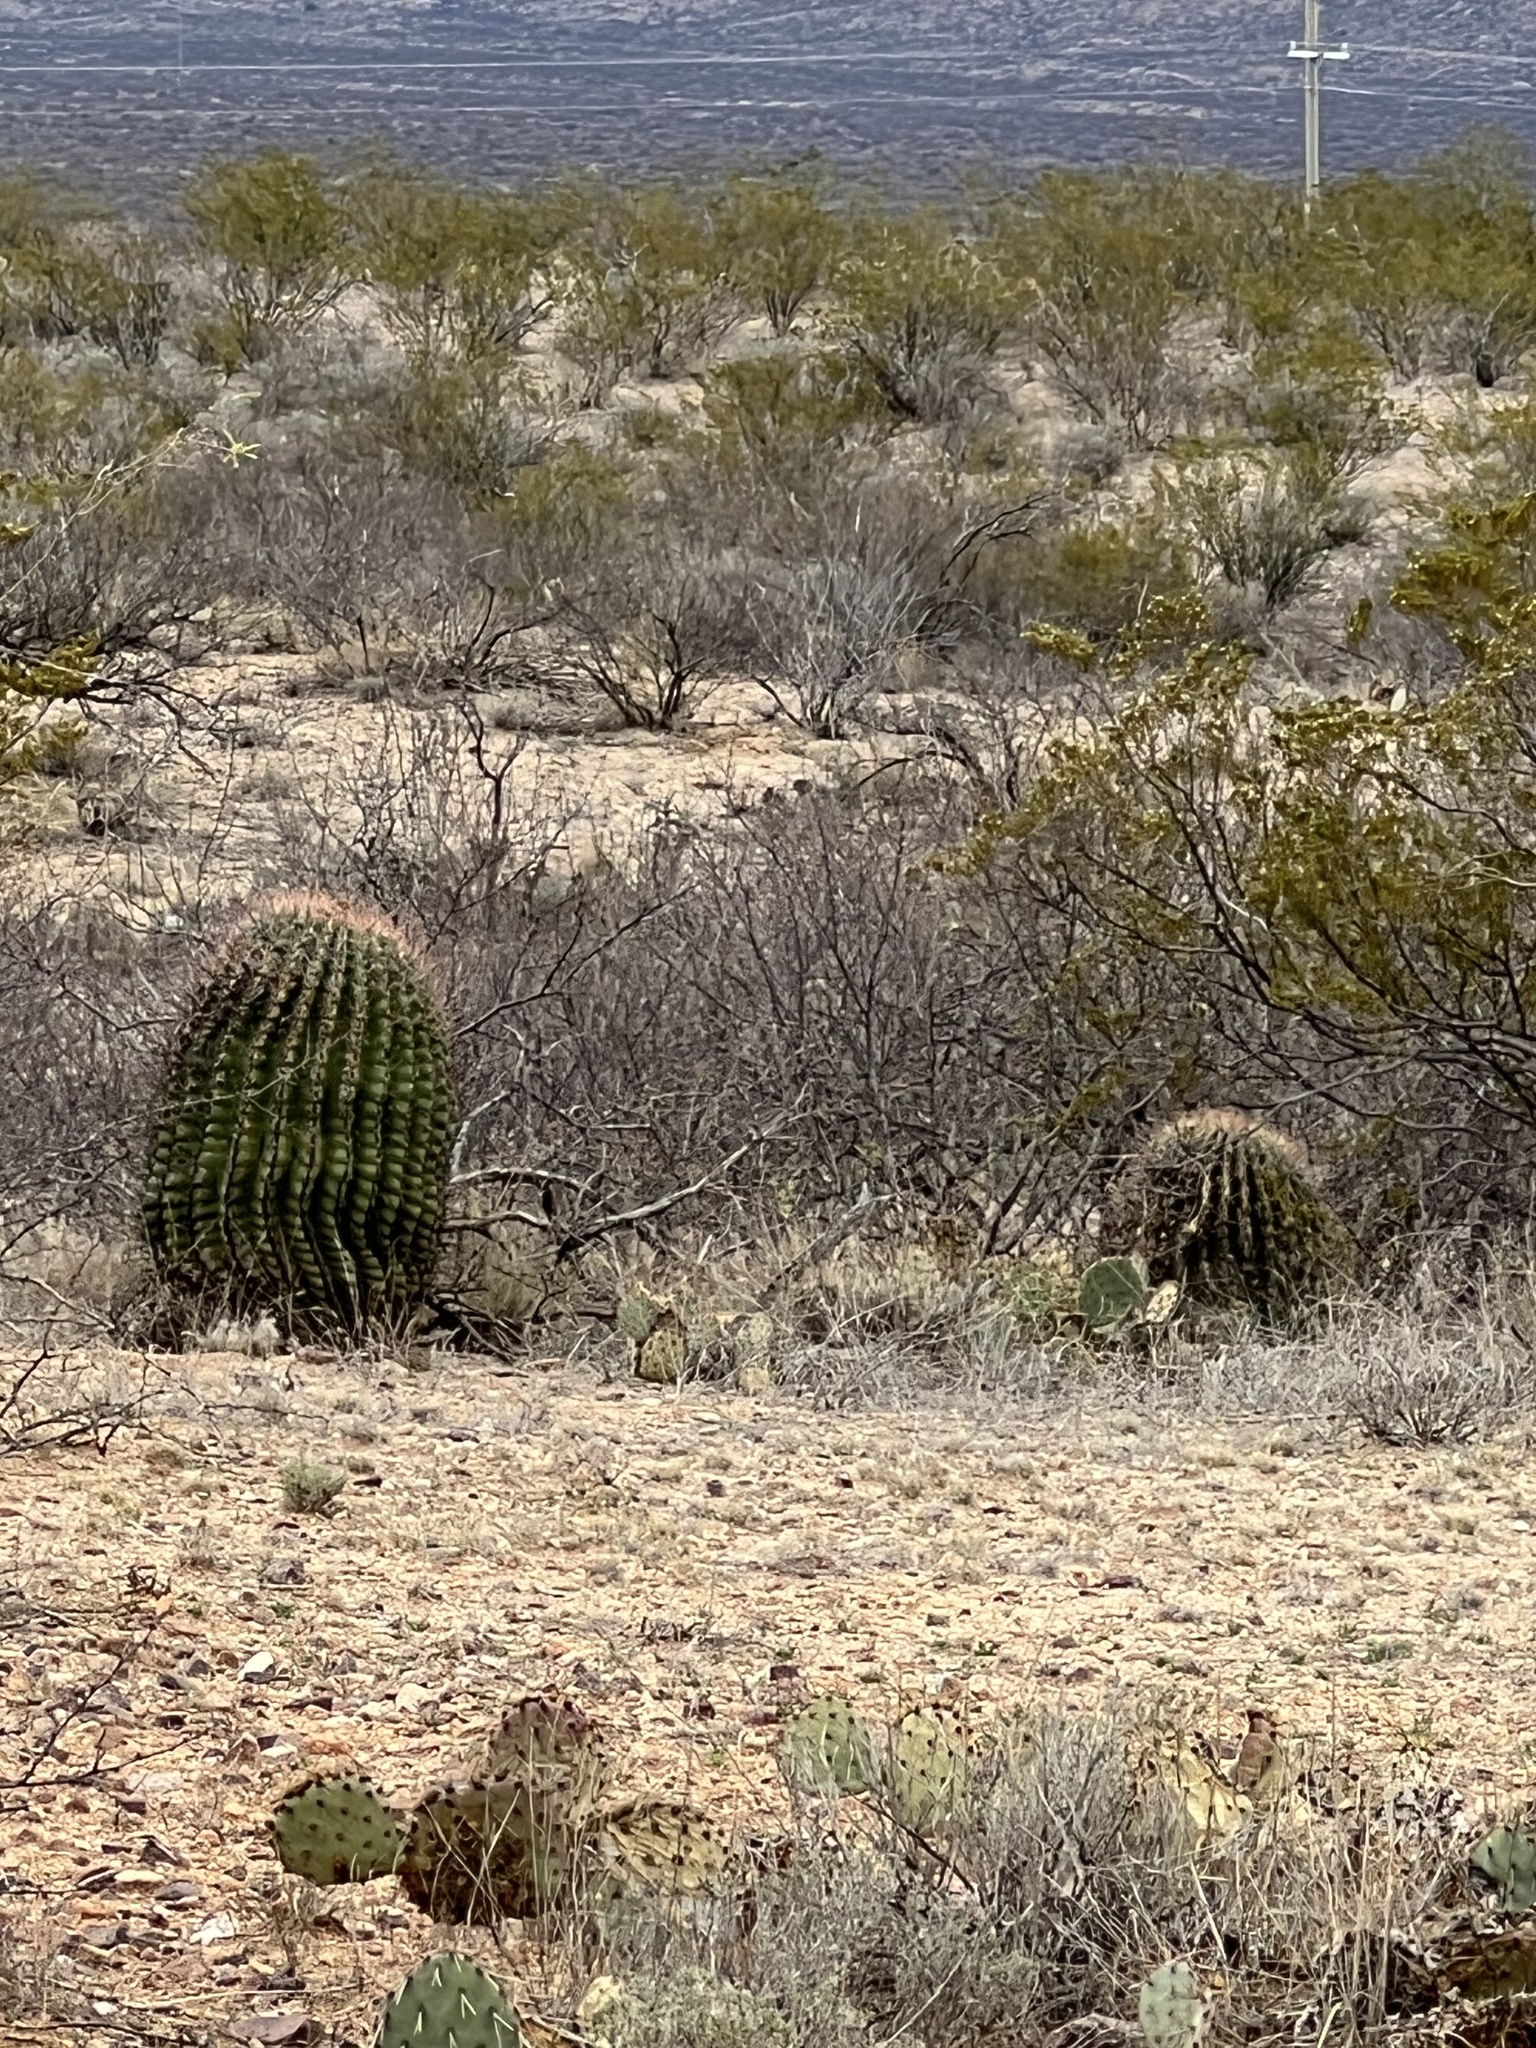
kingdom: Plantae
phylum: Tracheophyta
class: Magnoliopsida
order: Caryophyllales
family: Cactaceae
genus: Ferocactus
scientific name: Ferocactus wislizeni
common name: Candy barrel cactus
